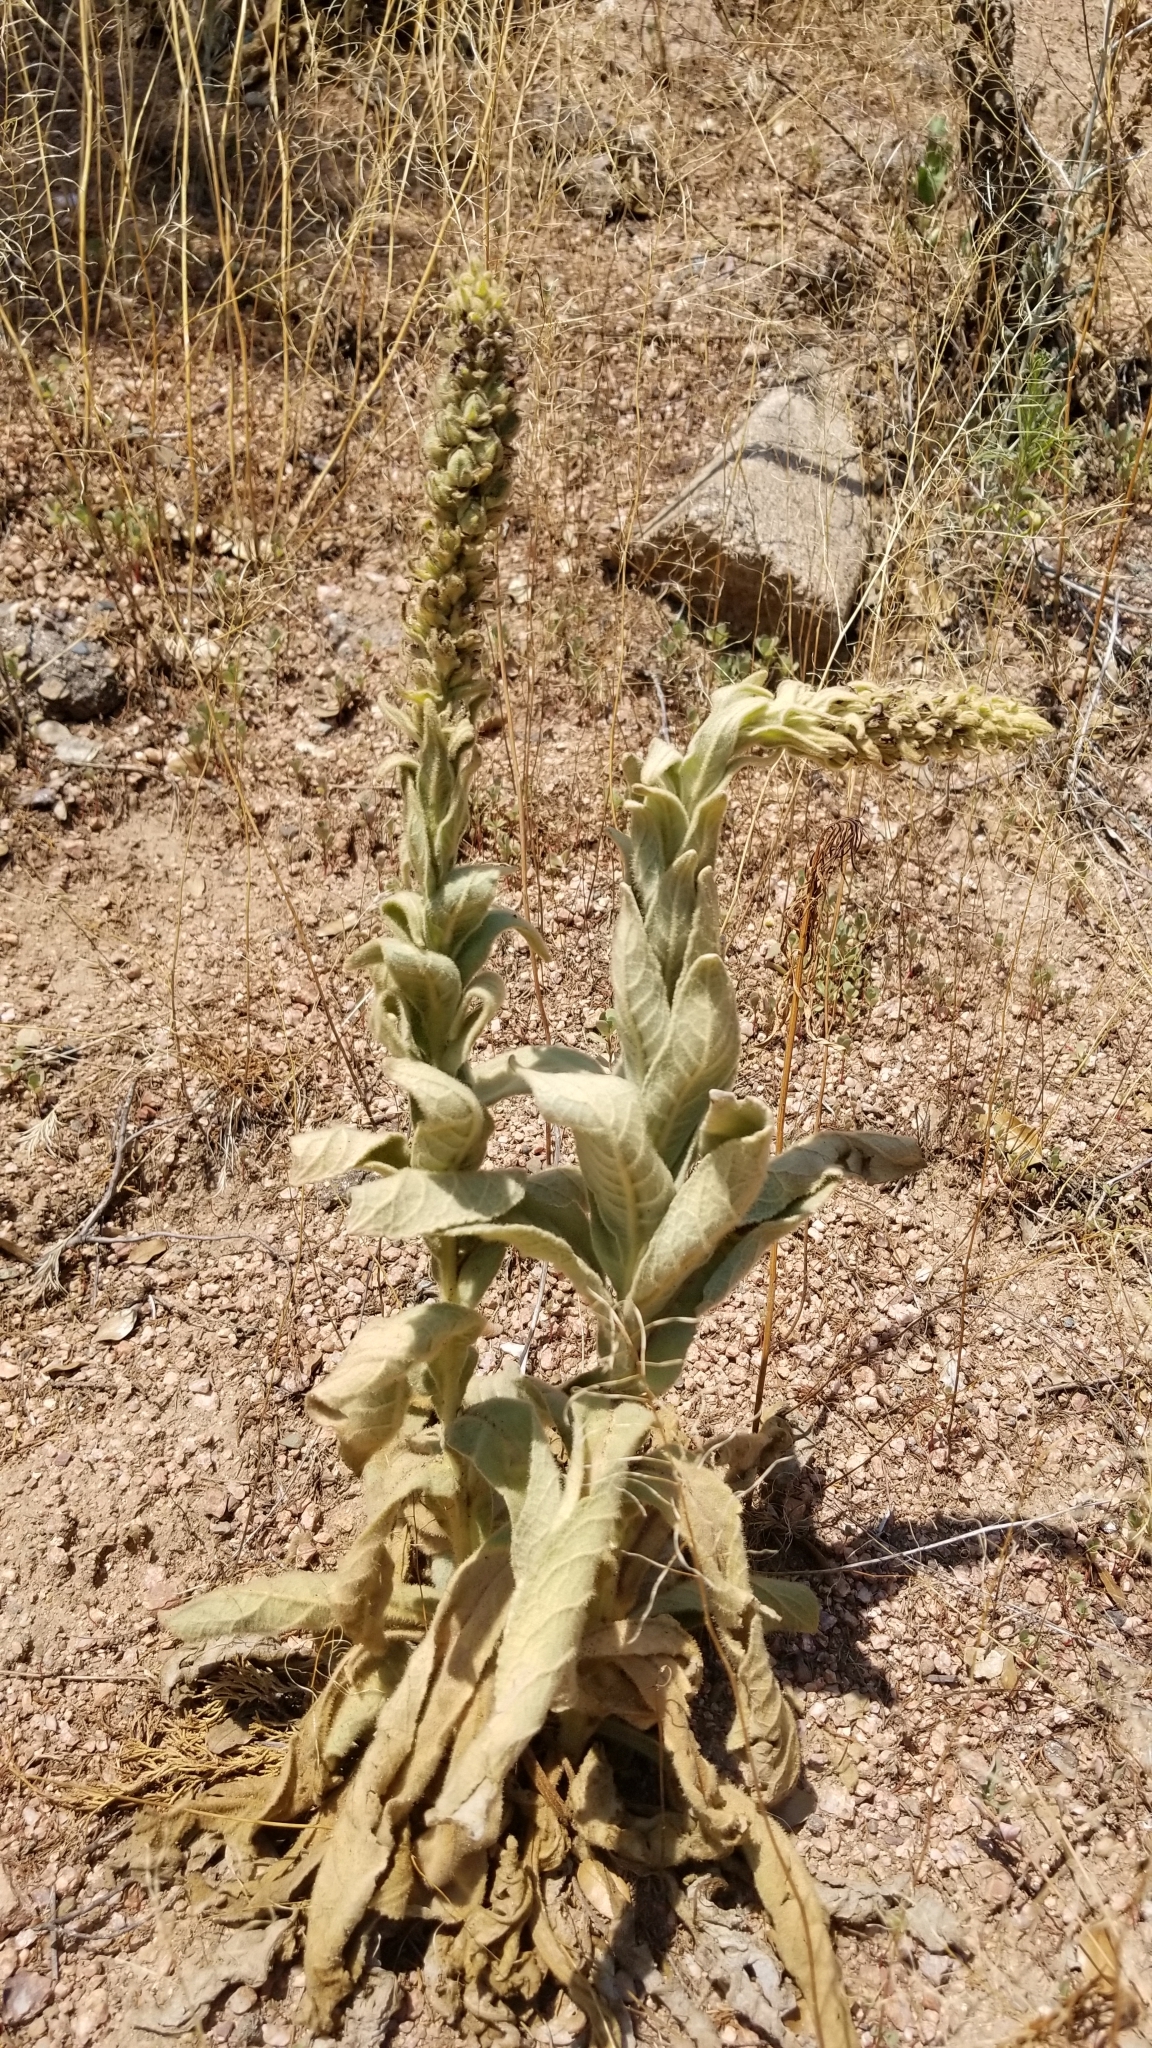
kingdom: Plantae
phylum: Tracheophyta
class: Magnoliopsida
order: Lamiales
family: Scrophulariaceae
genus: Verbascum
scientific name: Verbascum thapsus
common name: Common mullein
